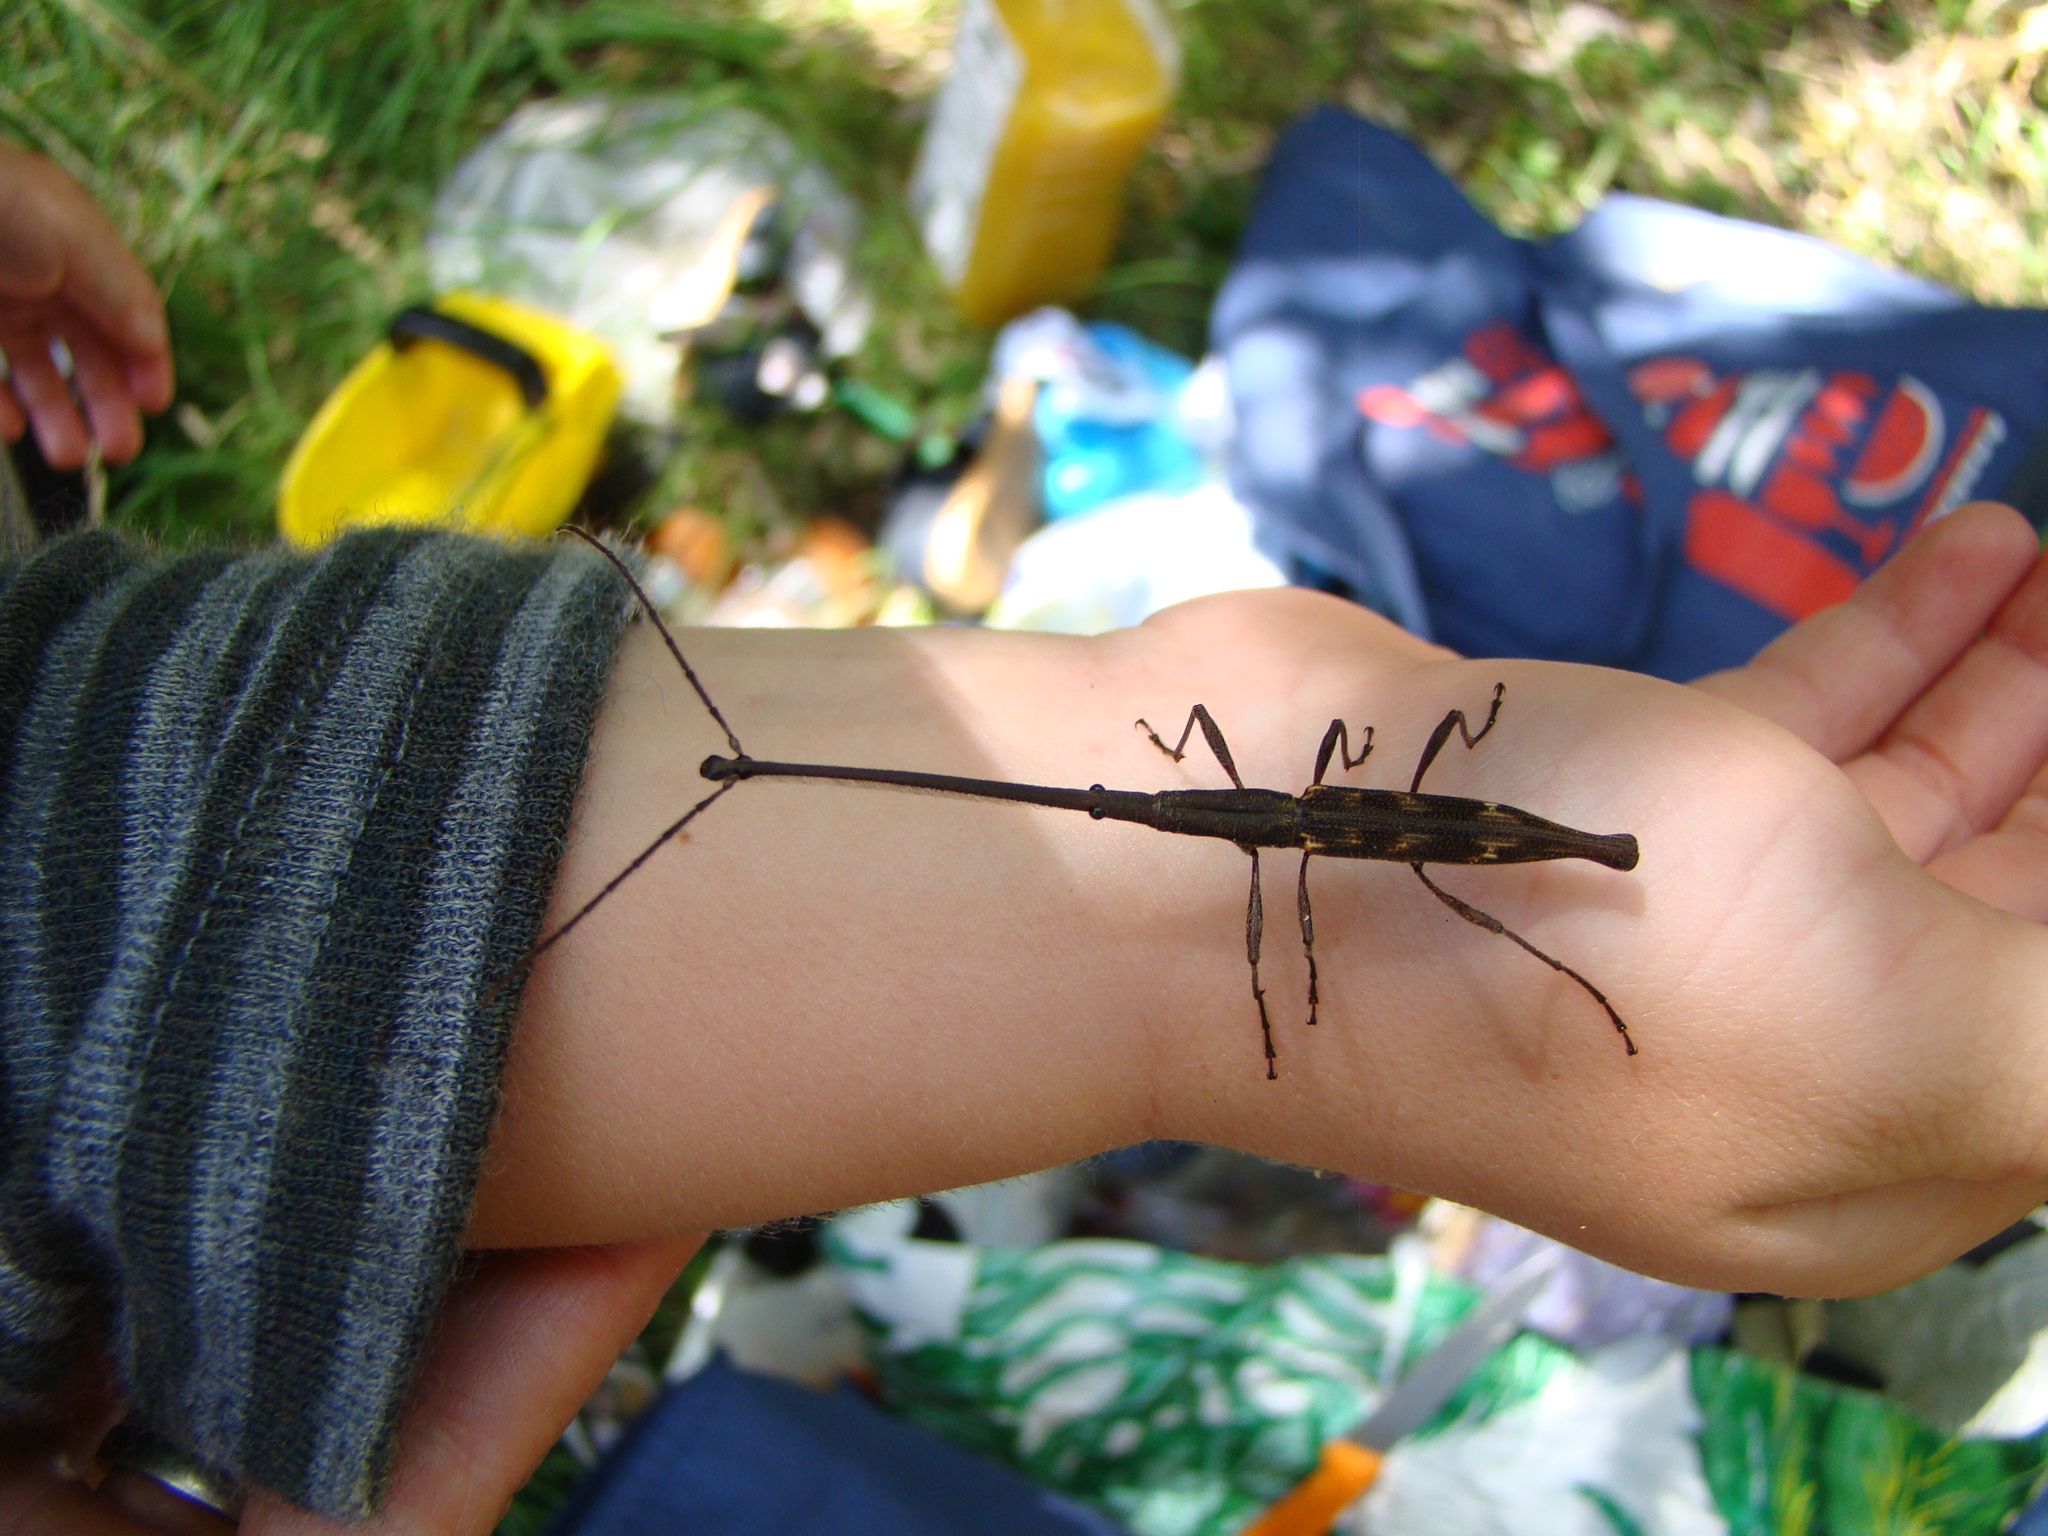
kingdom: Animalia
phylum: Arthropoda
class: Insecta
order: Coleoptera
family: Brentidae
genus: Lasiorhynchus
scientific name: Lasiorhynchus barbicornis
